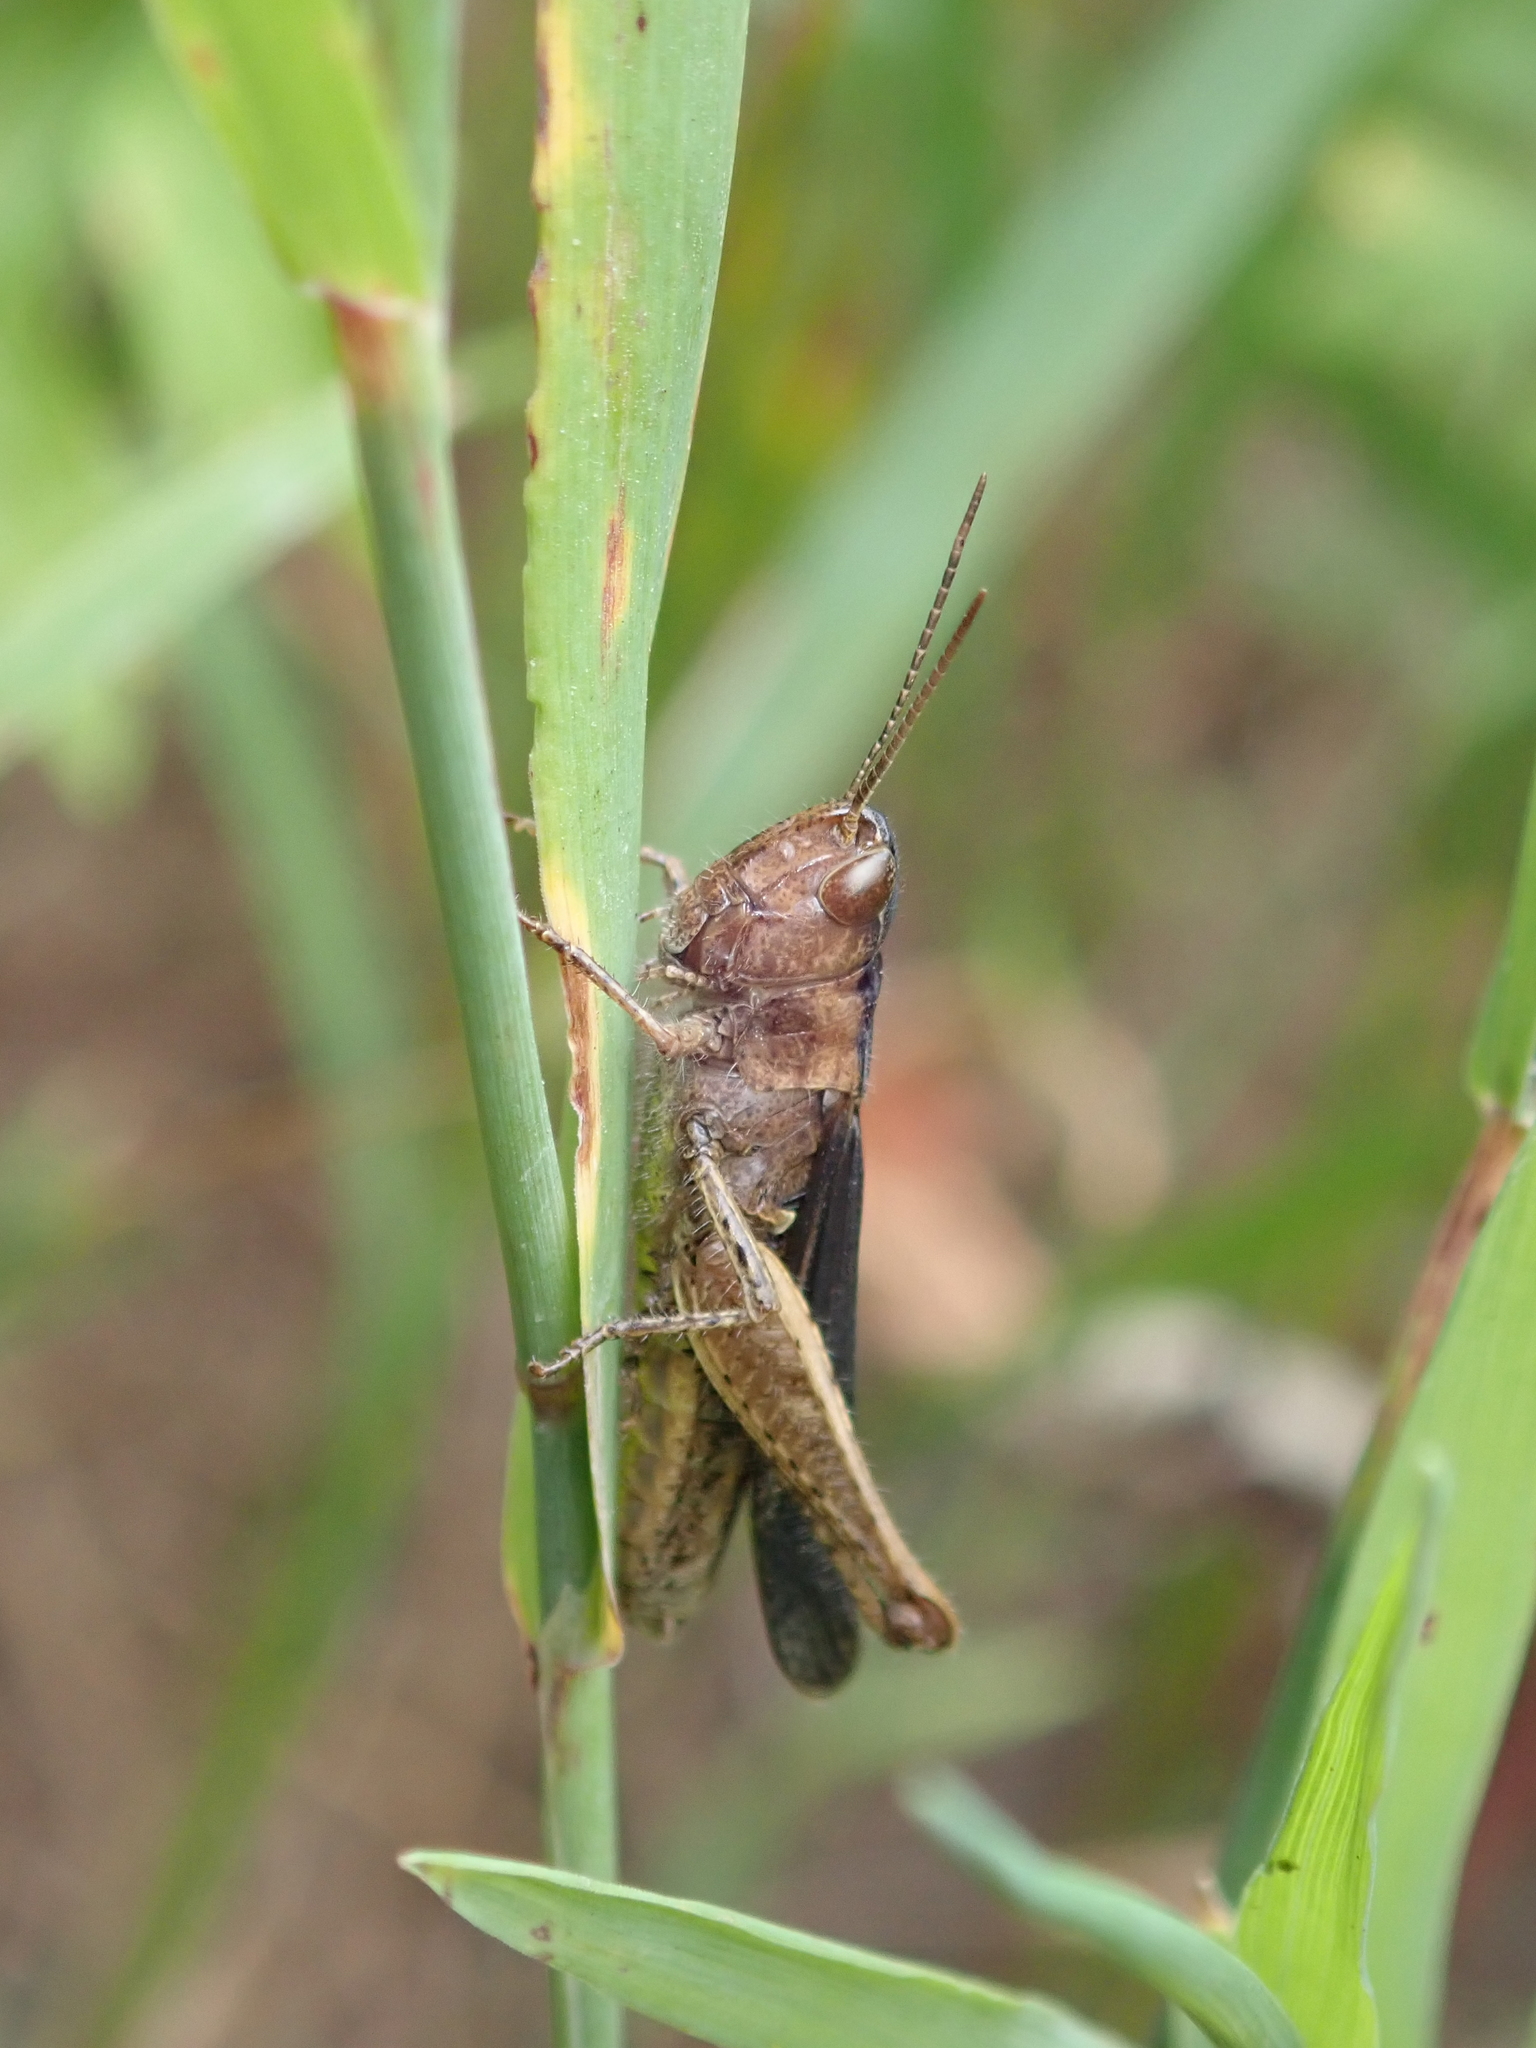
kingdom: Animalia
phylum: Arthropoda
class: Insecta
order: Orthoptera
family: Acrididae
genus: Chorthippus
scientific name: Chorthippus dorsatus
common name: Steppe grasshopper
